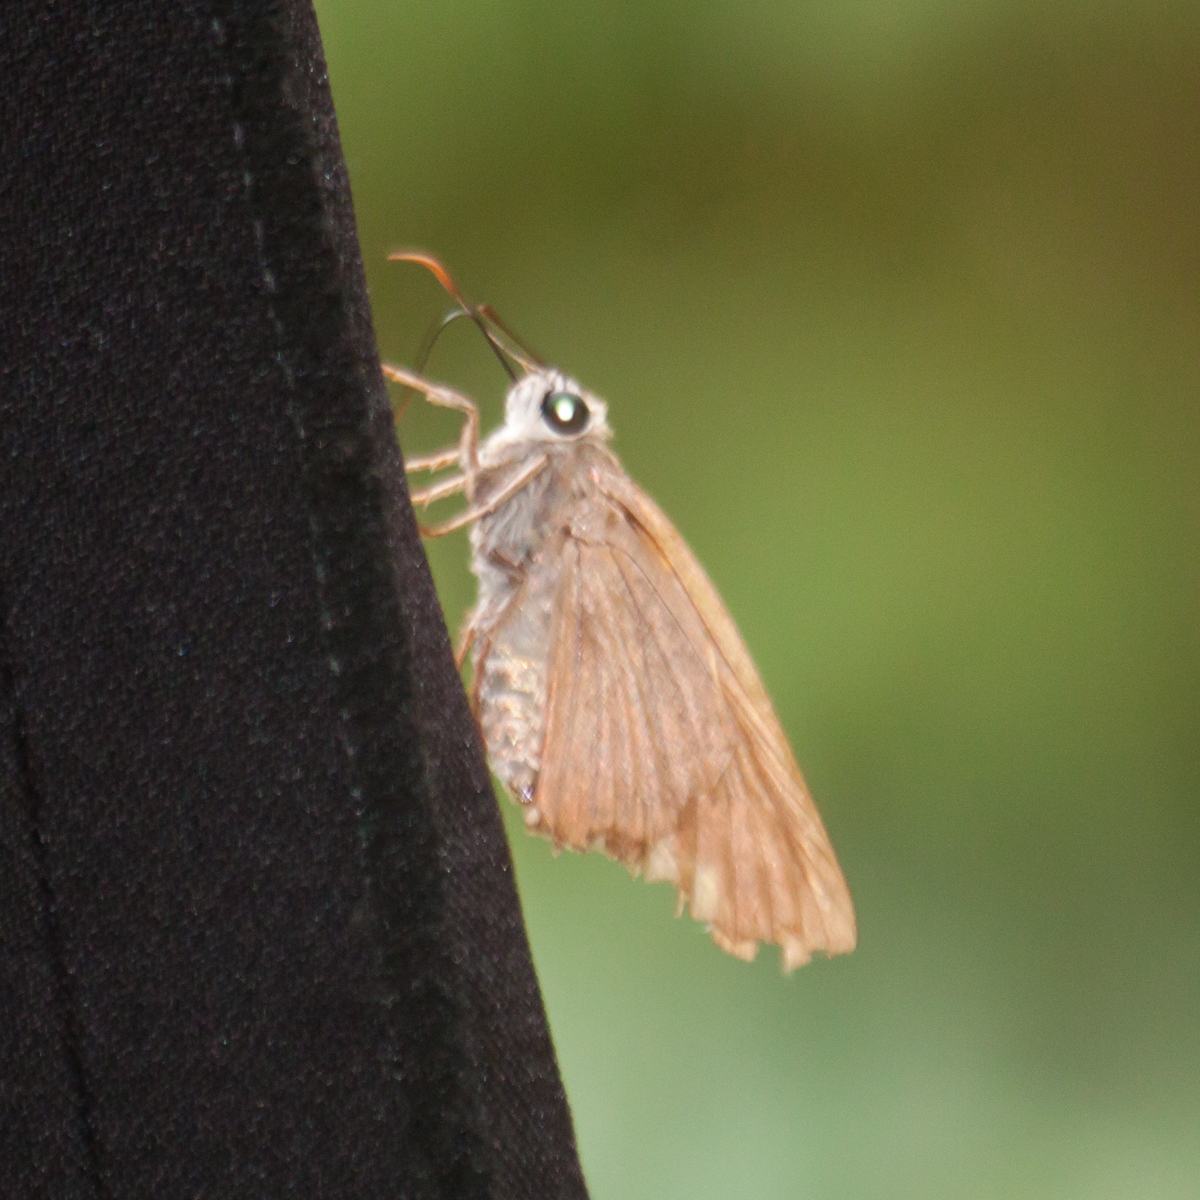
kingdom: Animalia
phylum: Arthropoda
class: Insecta
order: Lepidoptera
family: Hesperiidae
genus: Badamia
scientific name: Badamia exclamationis
